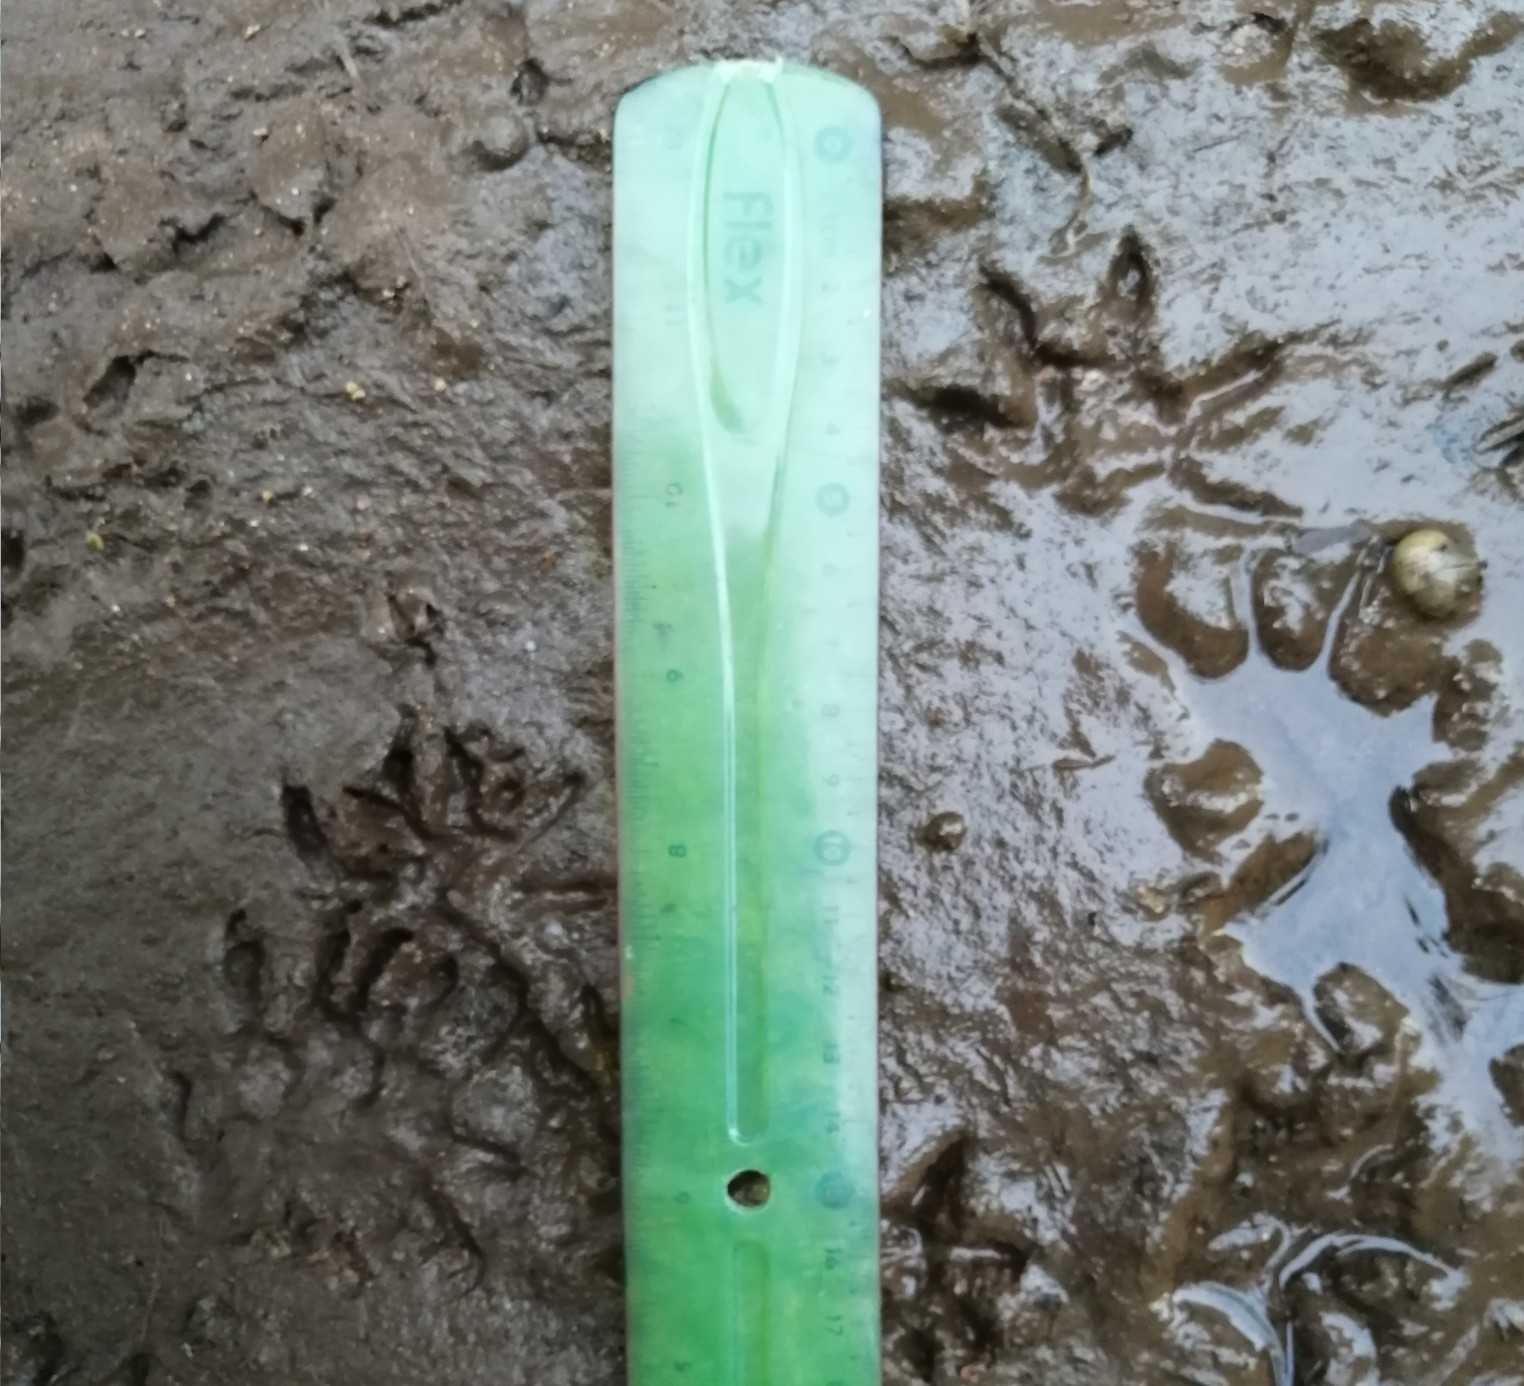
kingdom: Animalia
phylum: Chordata
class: Mammalia
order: Didelphimorphia
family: Didelphidae
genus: Didelphis
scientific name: Didelphis
